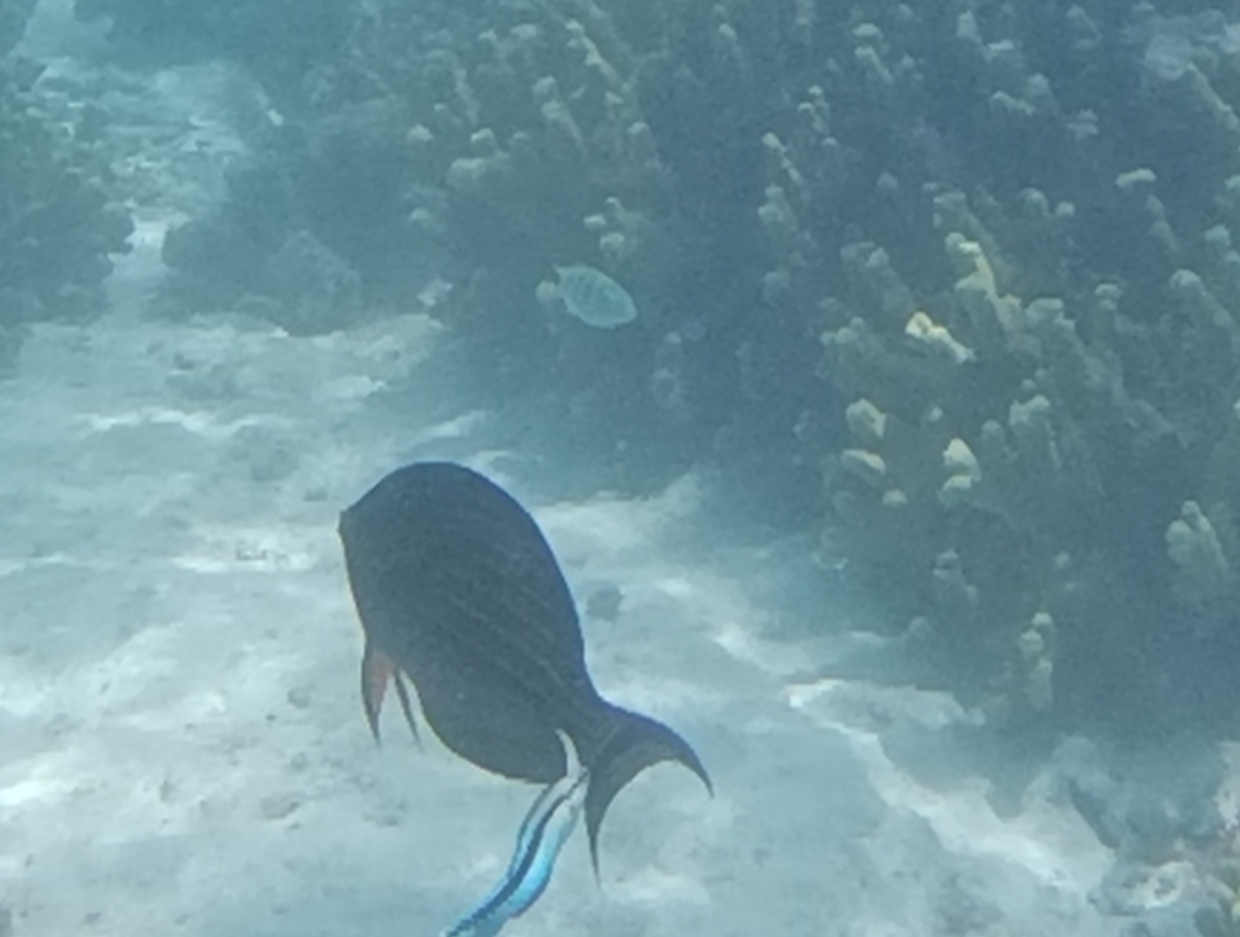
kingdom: Animalia
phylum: Chordata
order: Perciformes
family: Acanthuridae
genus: Acanthurus
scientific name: Acanthurus lineatus
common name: Striped surgeonfish
